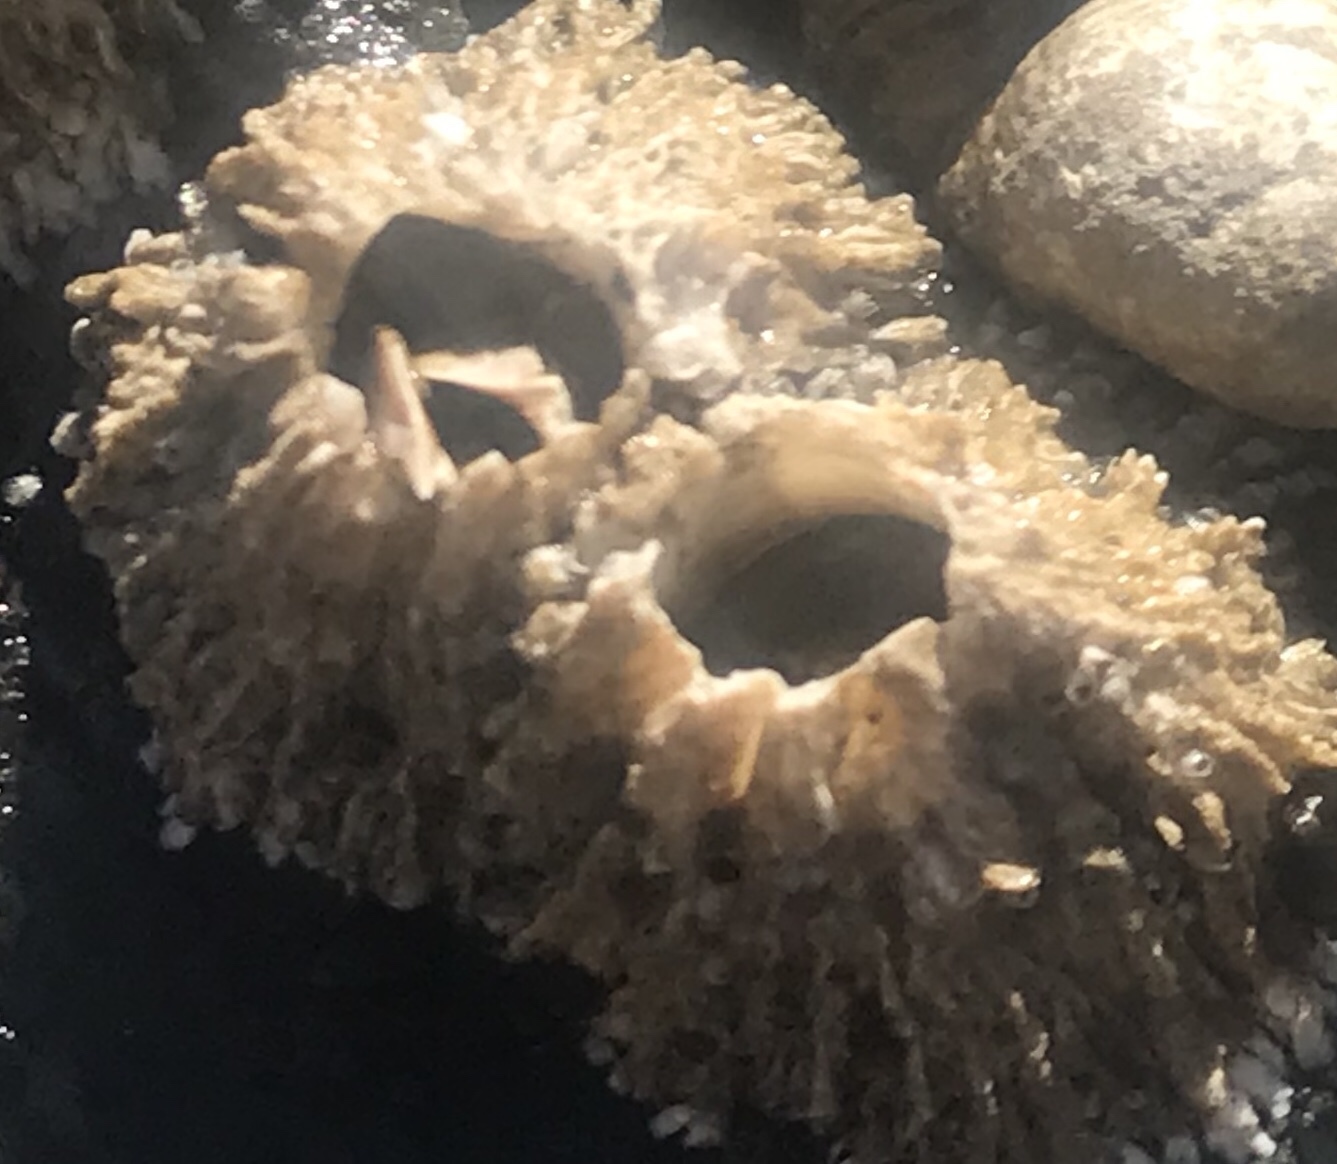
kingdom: Animalia
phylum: Arthropoda
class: Maxillopoda
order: Sessilia
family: Archaeobalanidae
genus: Semibalanus
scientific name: Semibalanus cariosus
